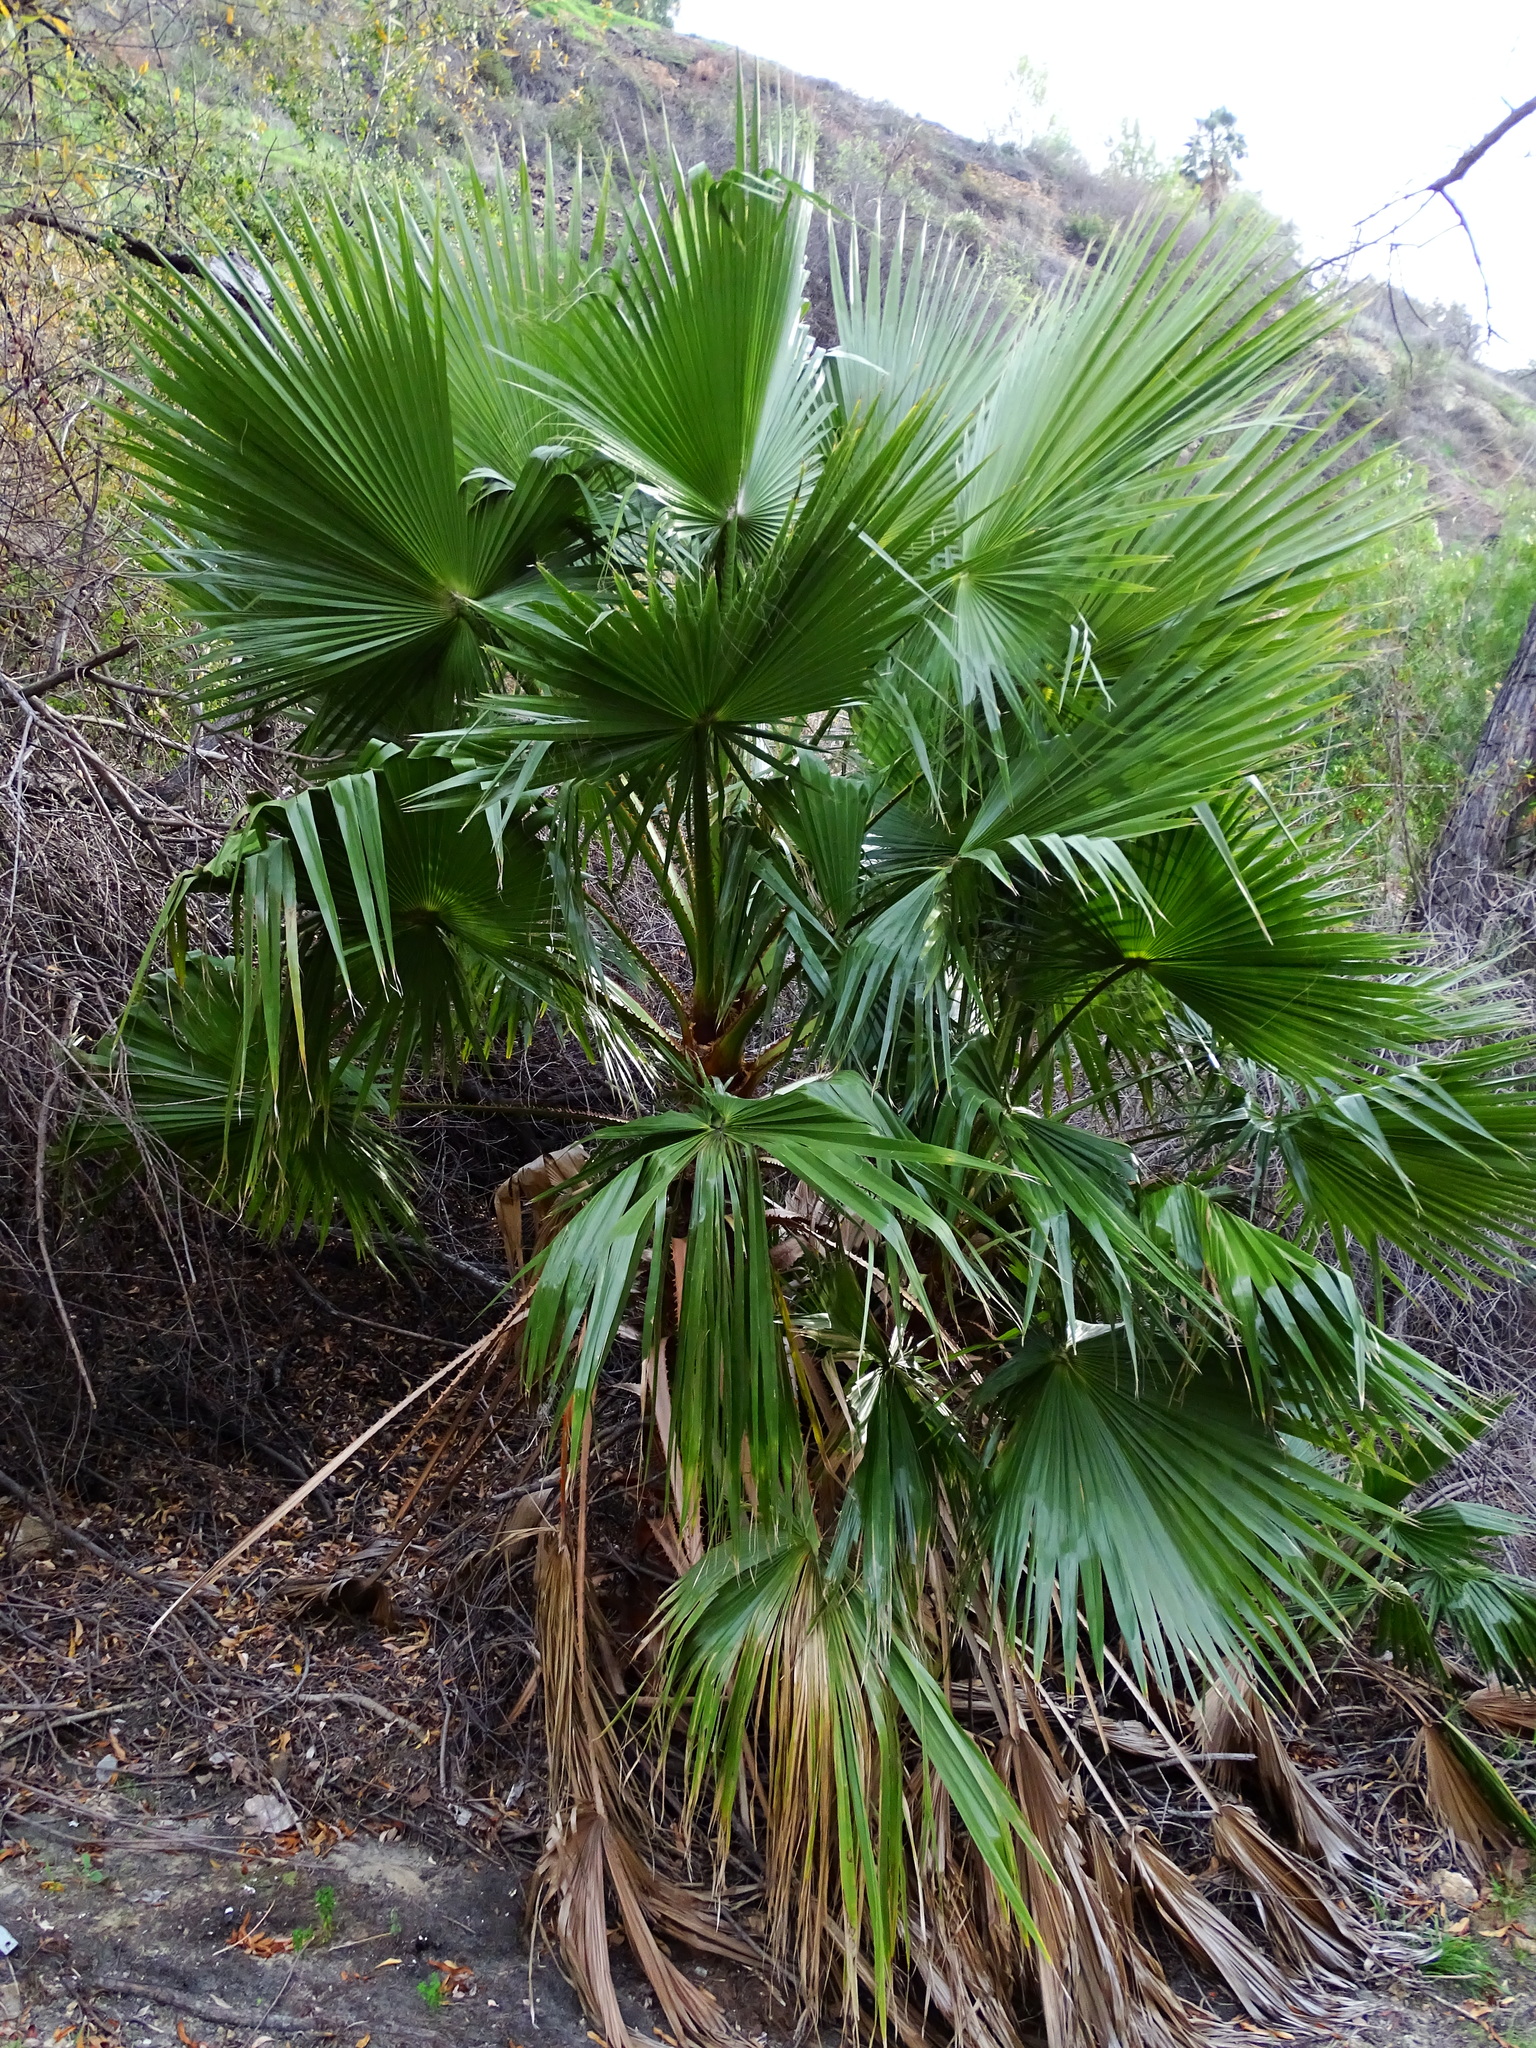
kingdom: Plantae
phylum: Tracheophyta
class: Liliopsida
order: Arecales
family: Arecaceae
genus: Washingtonia
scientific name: Washingtonia robusta
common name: Mexican fan palm
